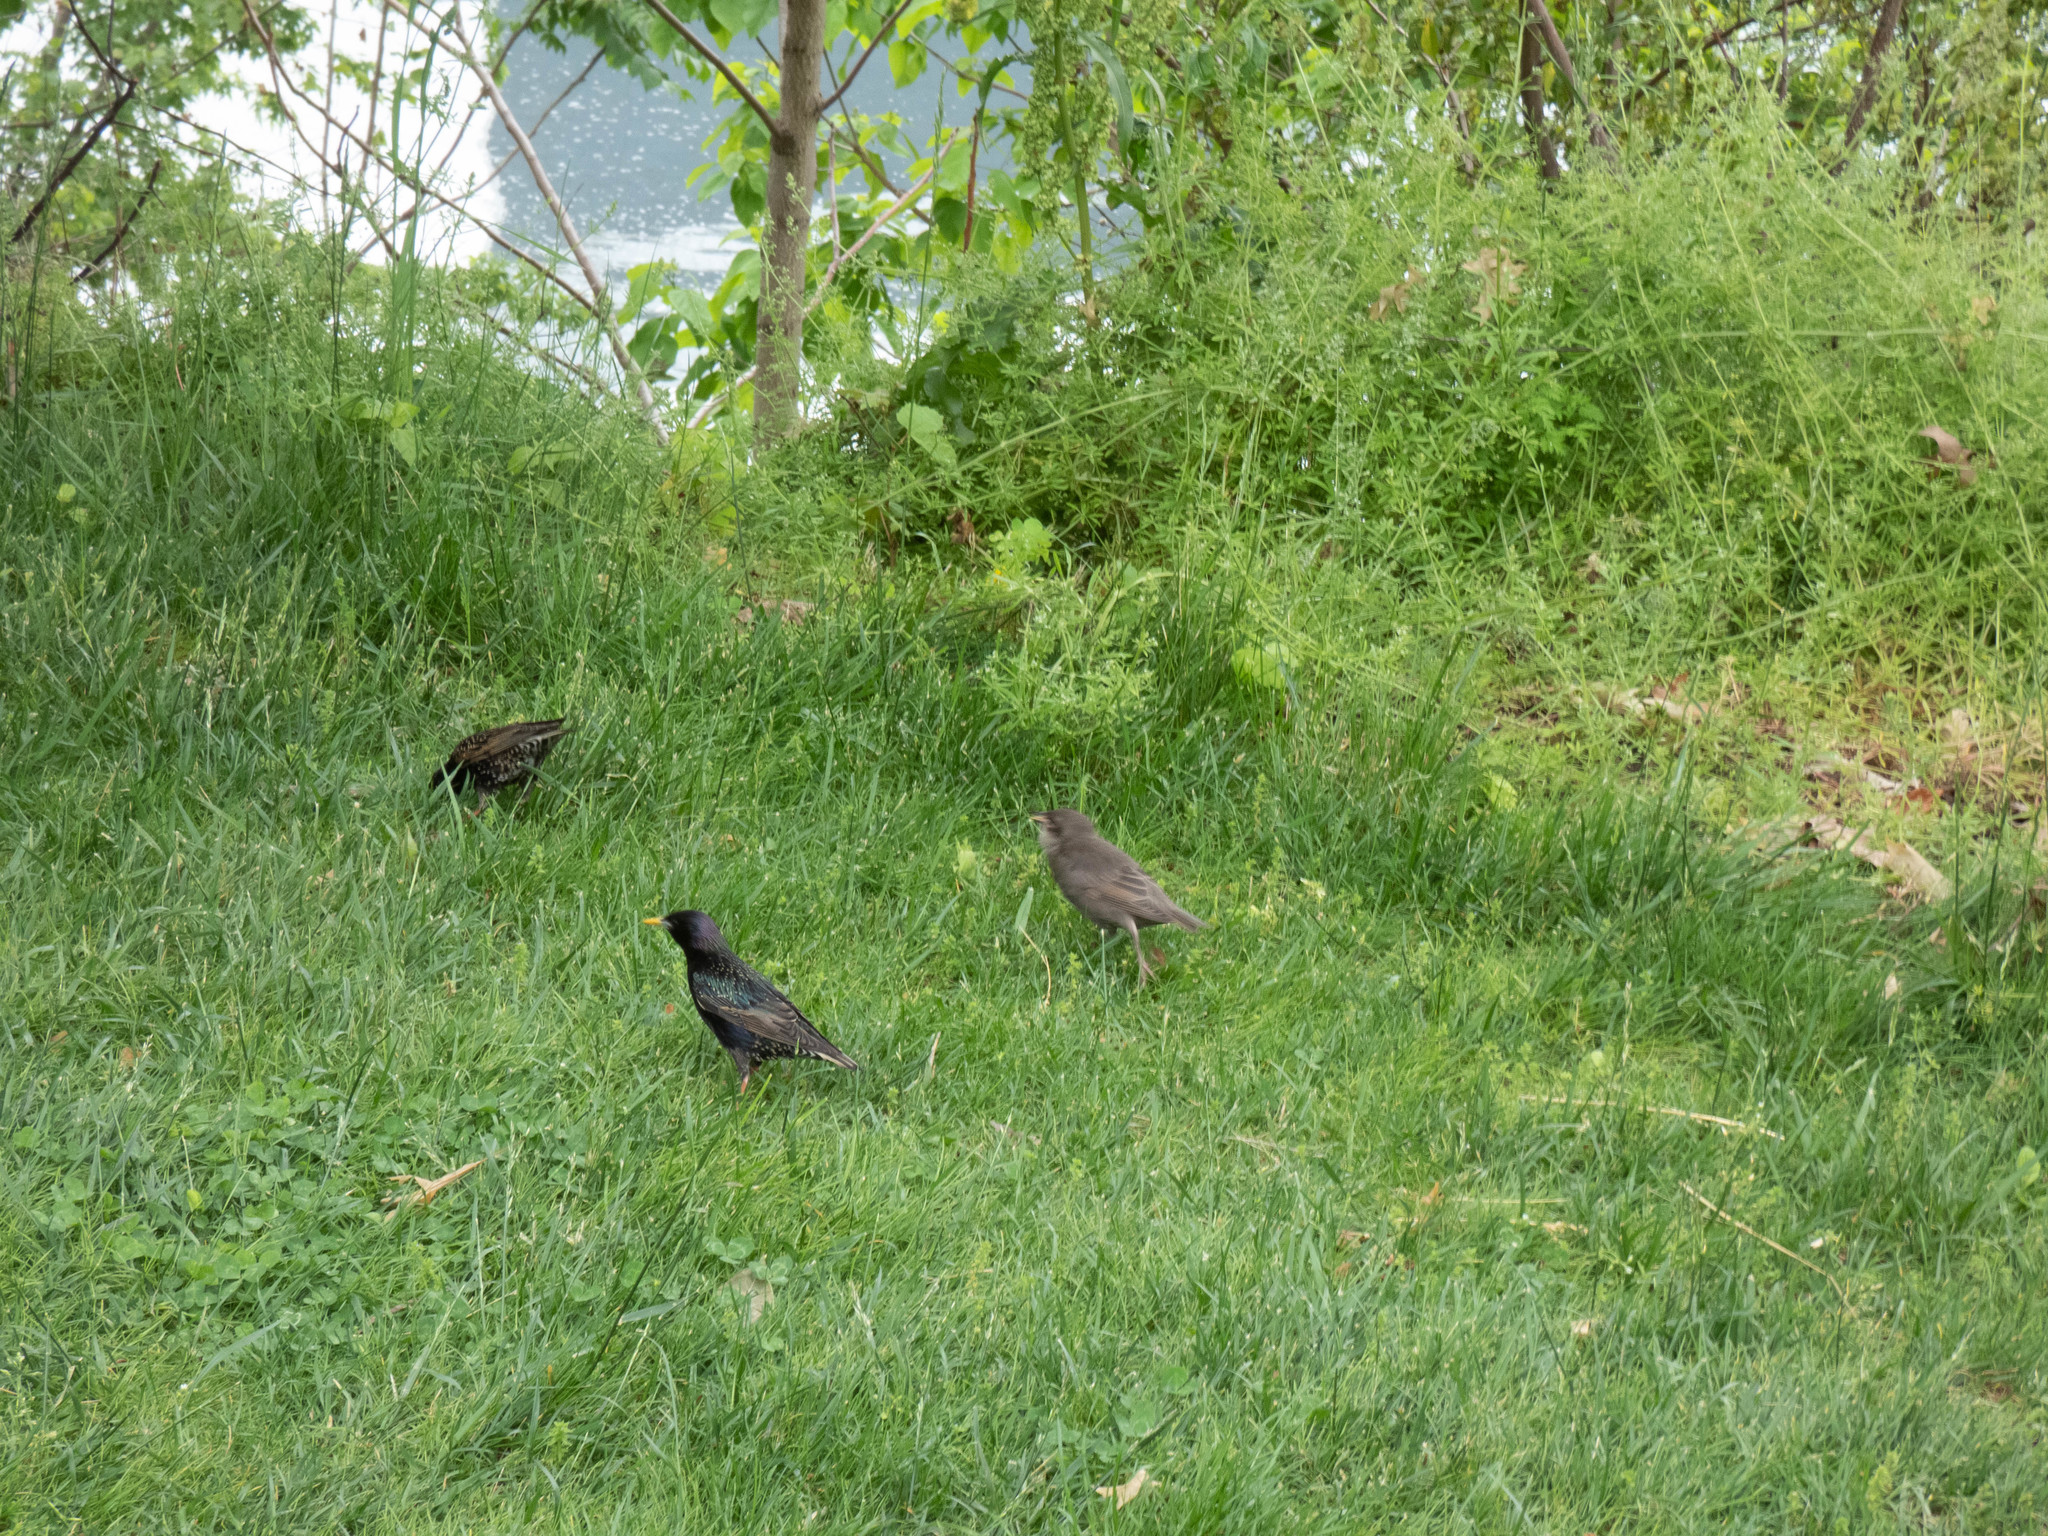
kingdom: Animalia
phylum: Chordata
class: Aves
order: Passeriformes
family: Sturnidae
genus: Sturnus
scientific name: Sturnus vulgaris
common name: Common starling
